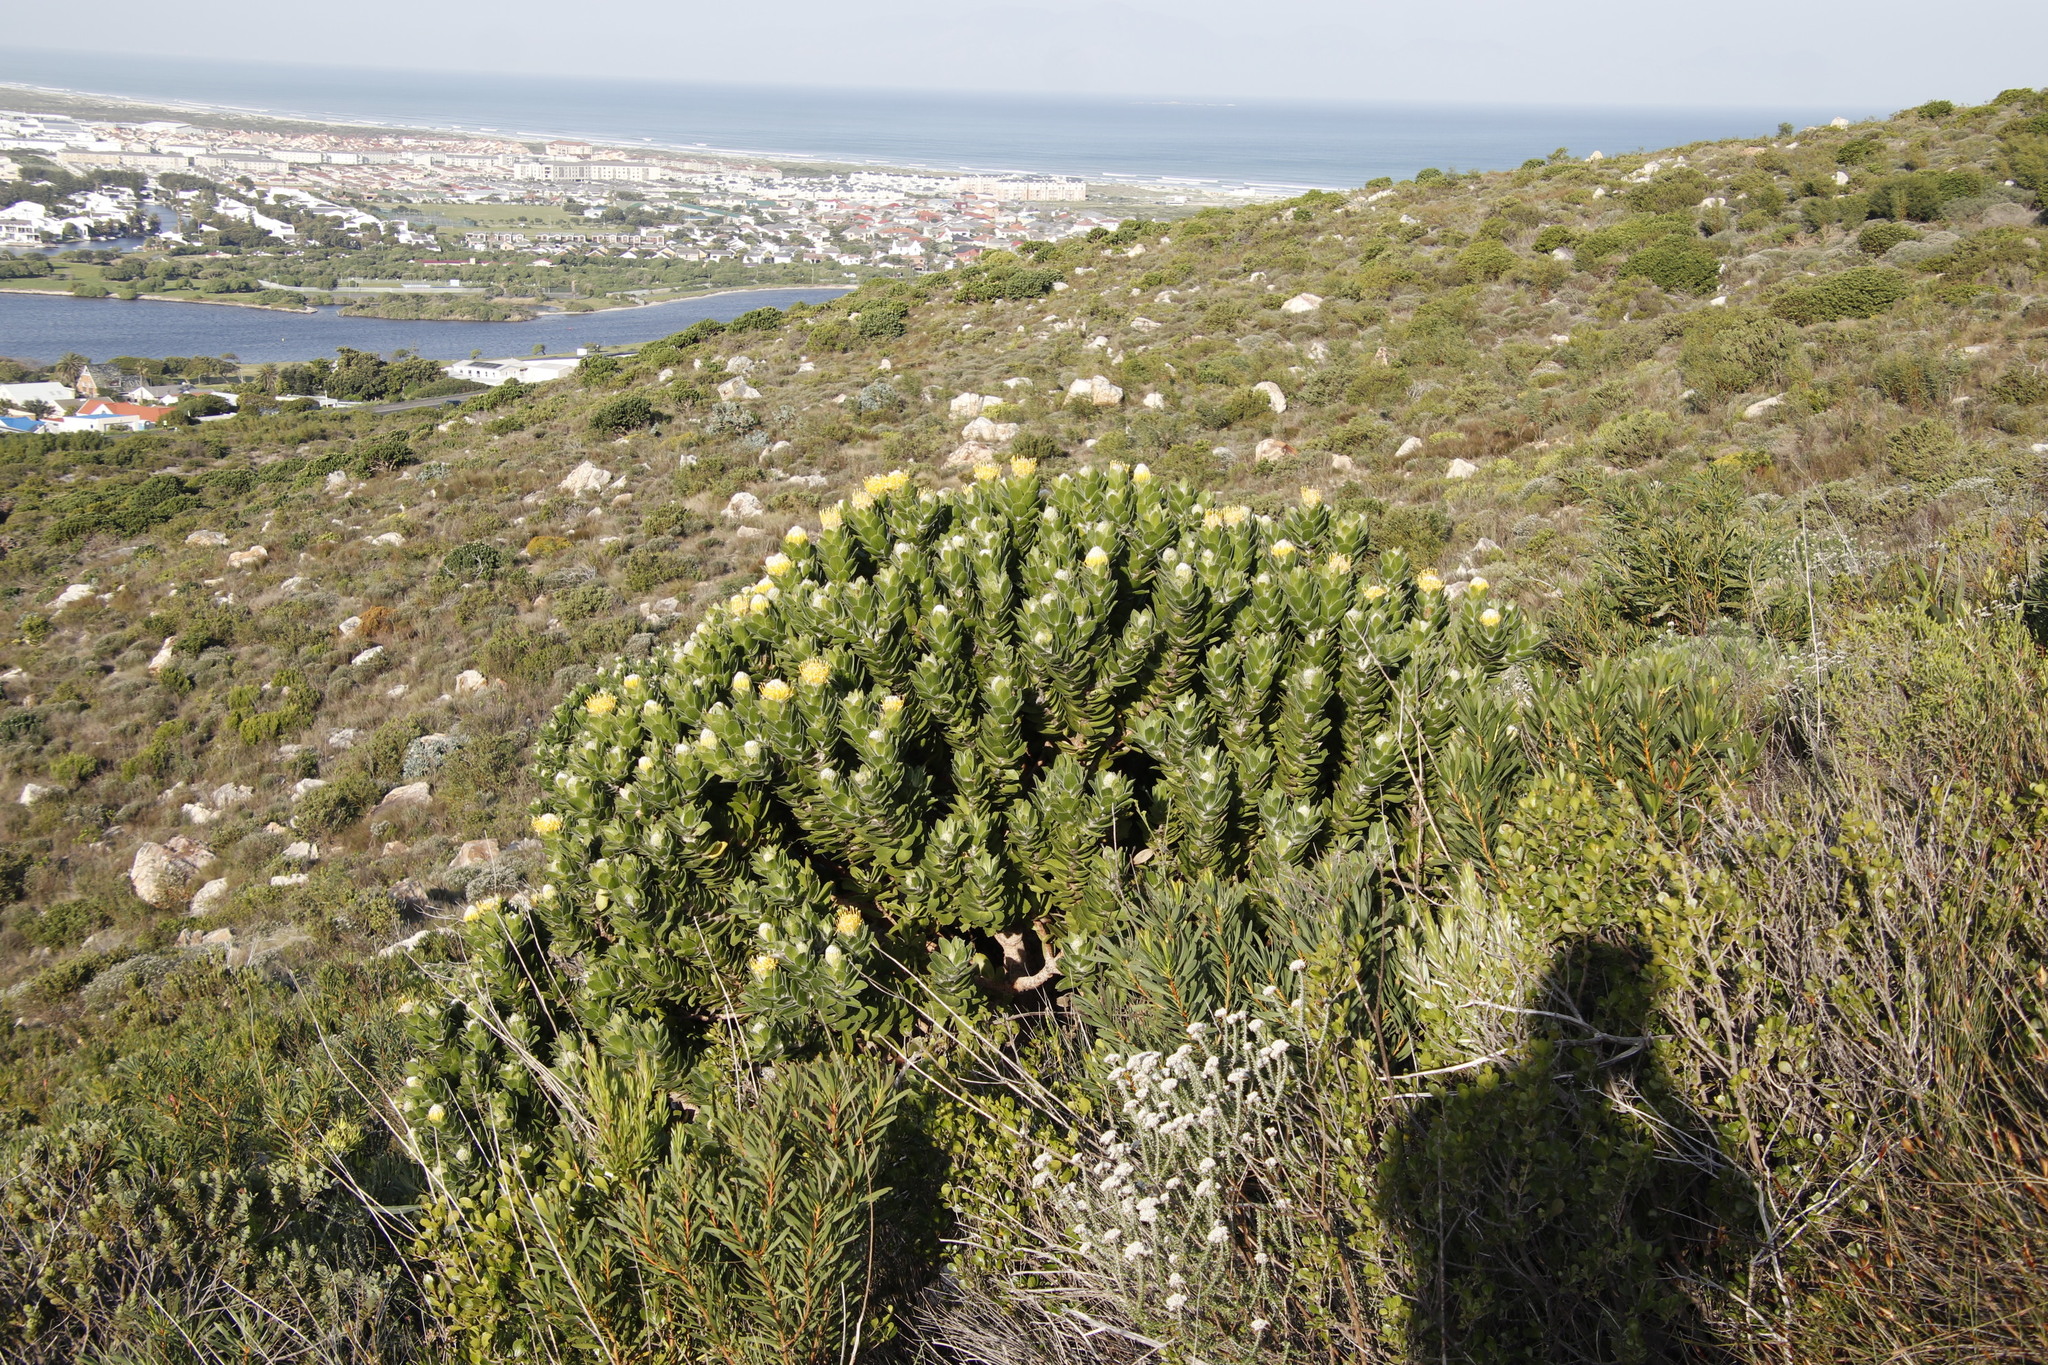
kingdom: Plantae
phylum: Tracheophyta
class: Magnoliopsida
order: Proteales
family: Proteaceae
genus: Leucospermum
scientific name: Leucospermum conocarpodendron
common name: Tree pincushion
